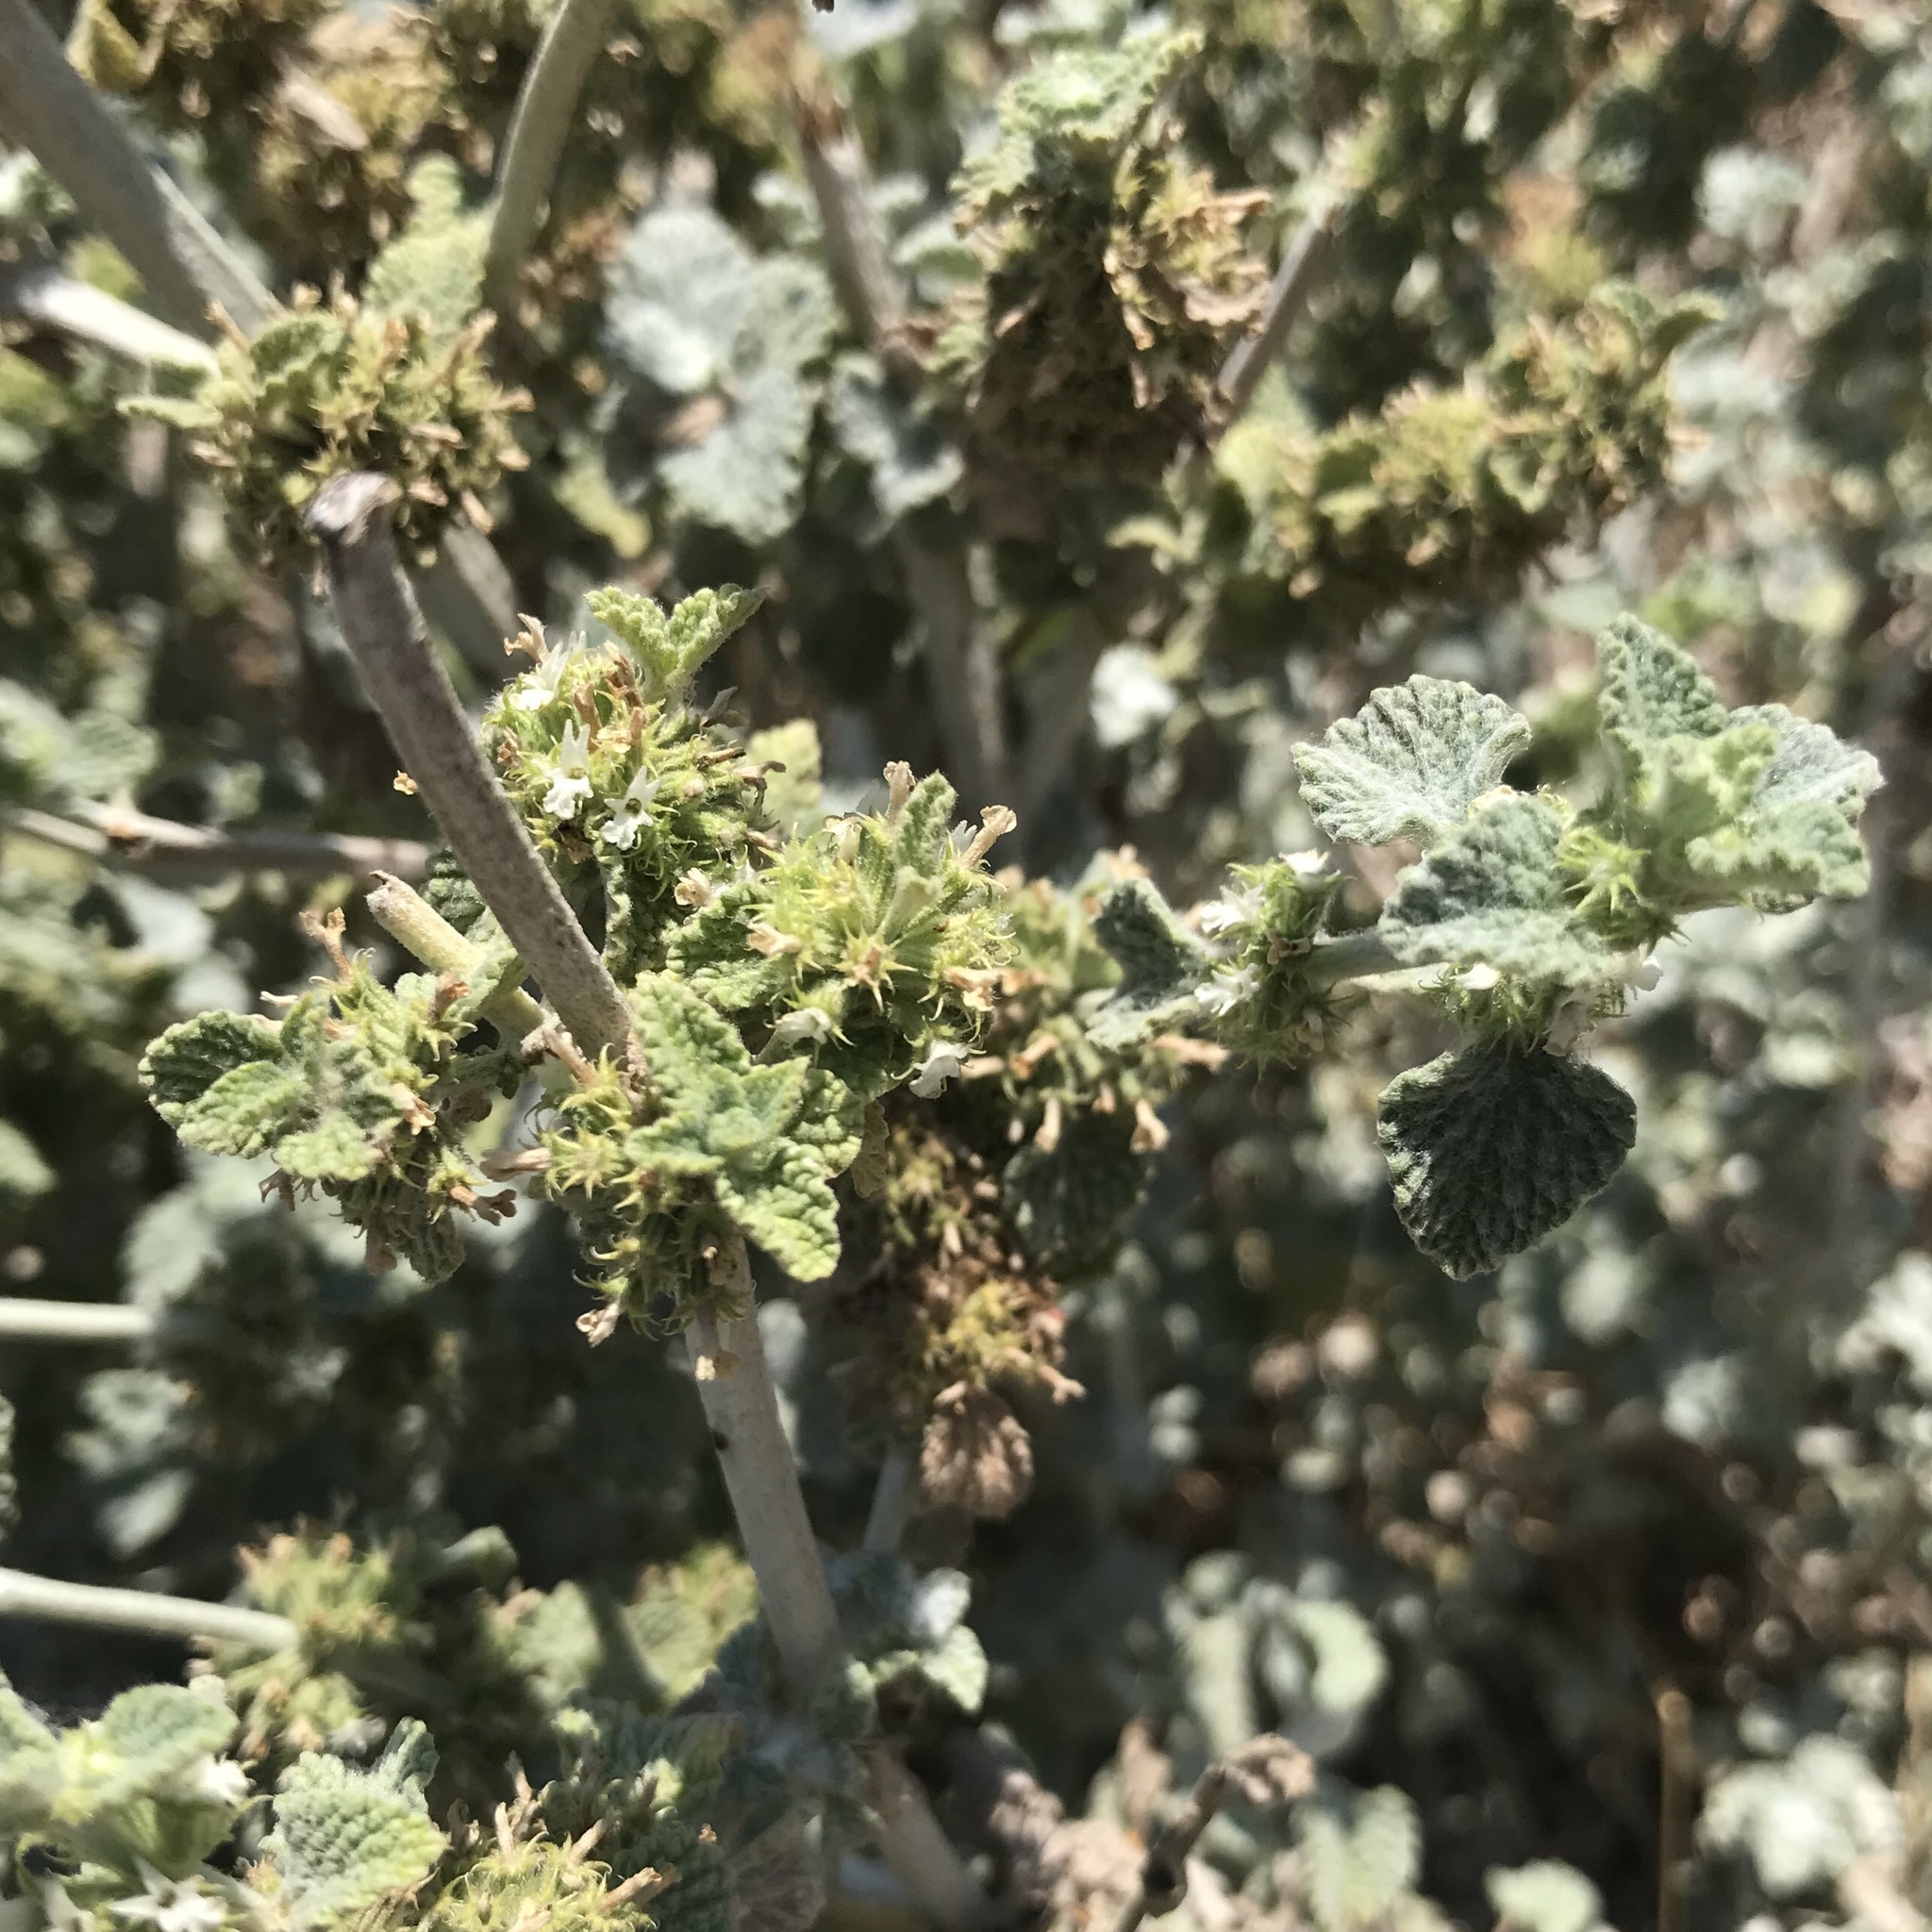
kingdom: Plantae
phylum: Tracheophyta
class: Magnoliopsida
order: Lamiales
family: Lamiaceae
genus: Marrubium
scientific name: Marrubium vulgare
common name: Horehound
